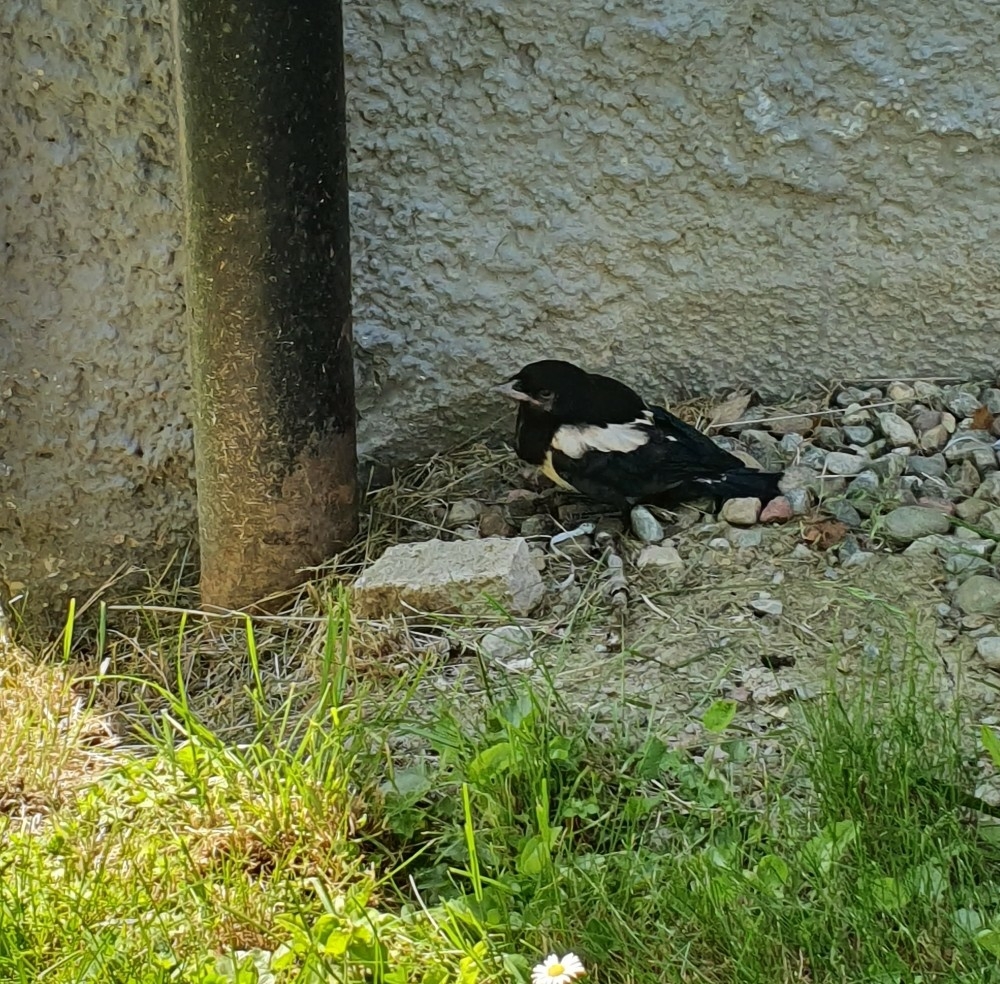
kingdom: Animalia
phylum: Chordata
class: Aves
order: Passeriformes
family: Corvidae
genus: Pica
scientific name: Pica pica
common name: Eurasian magpie
